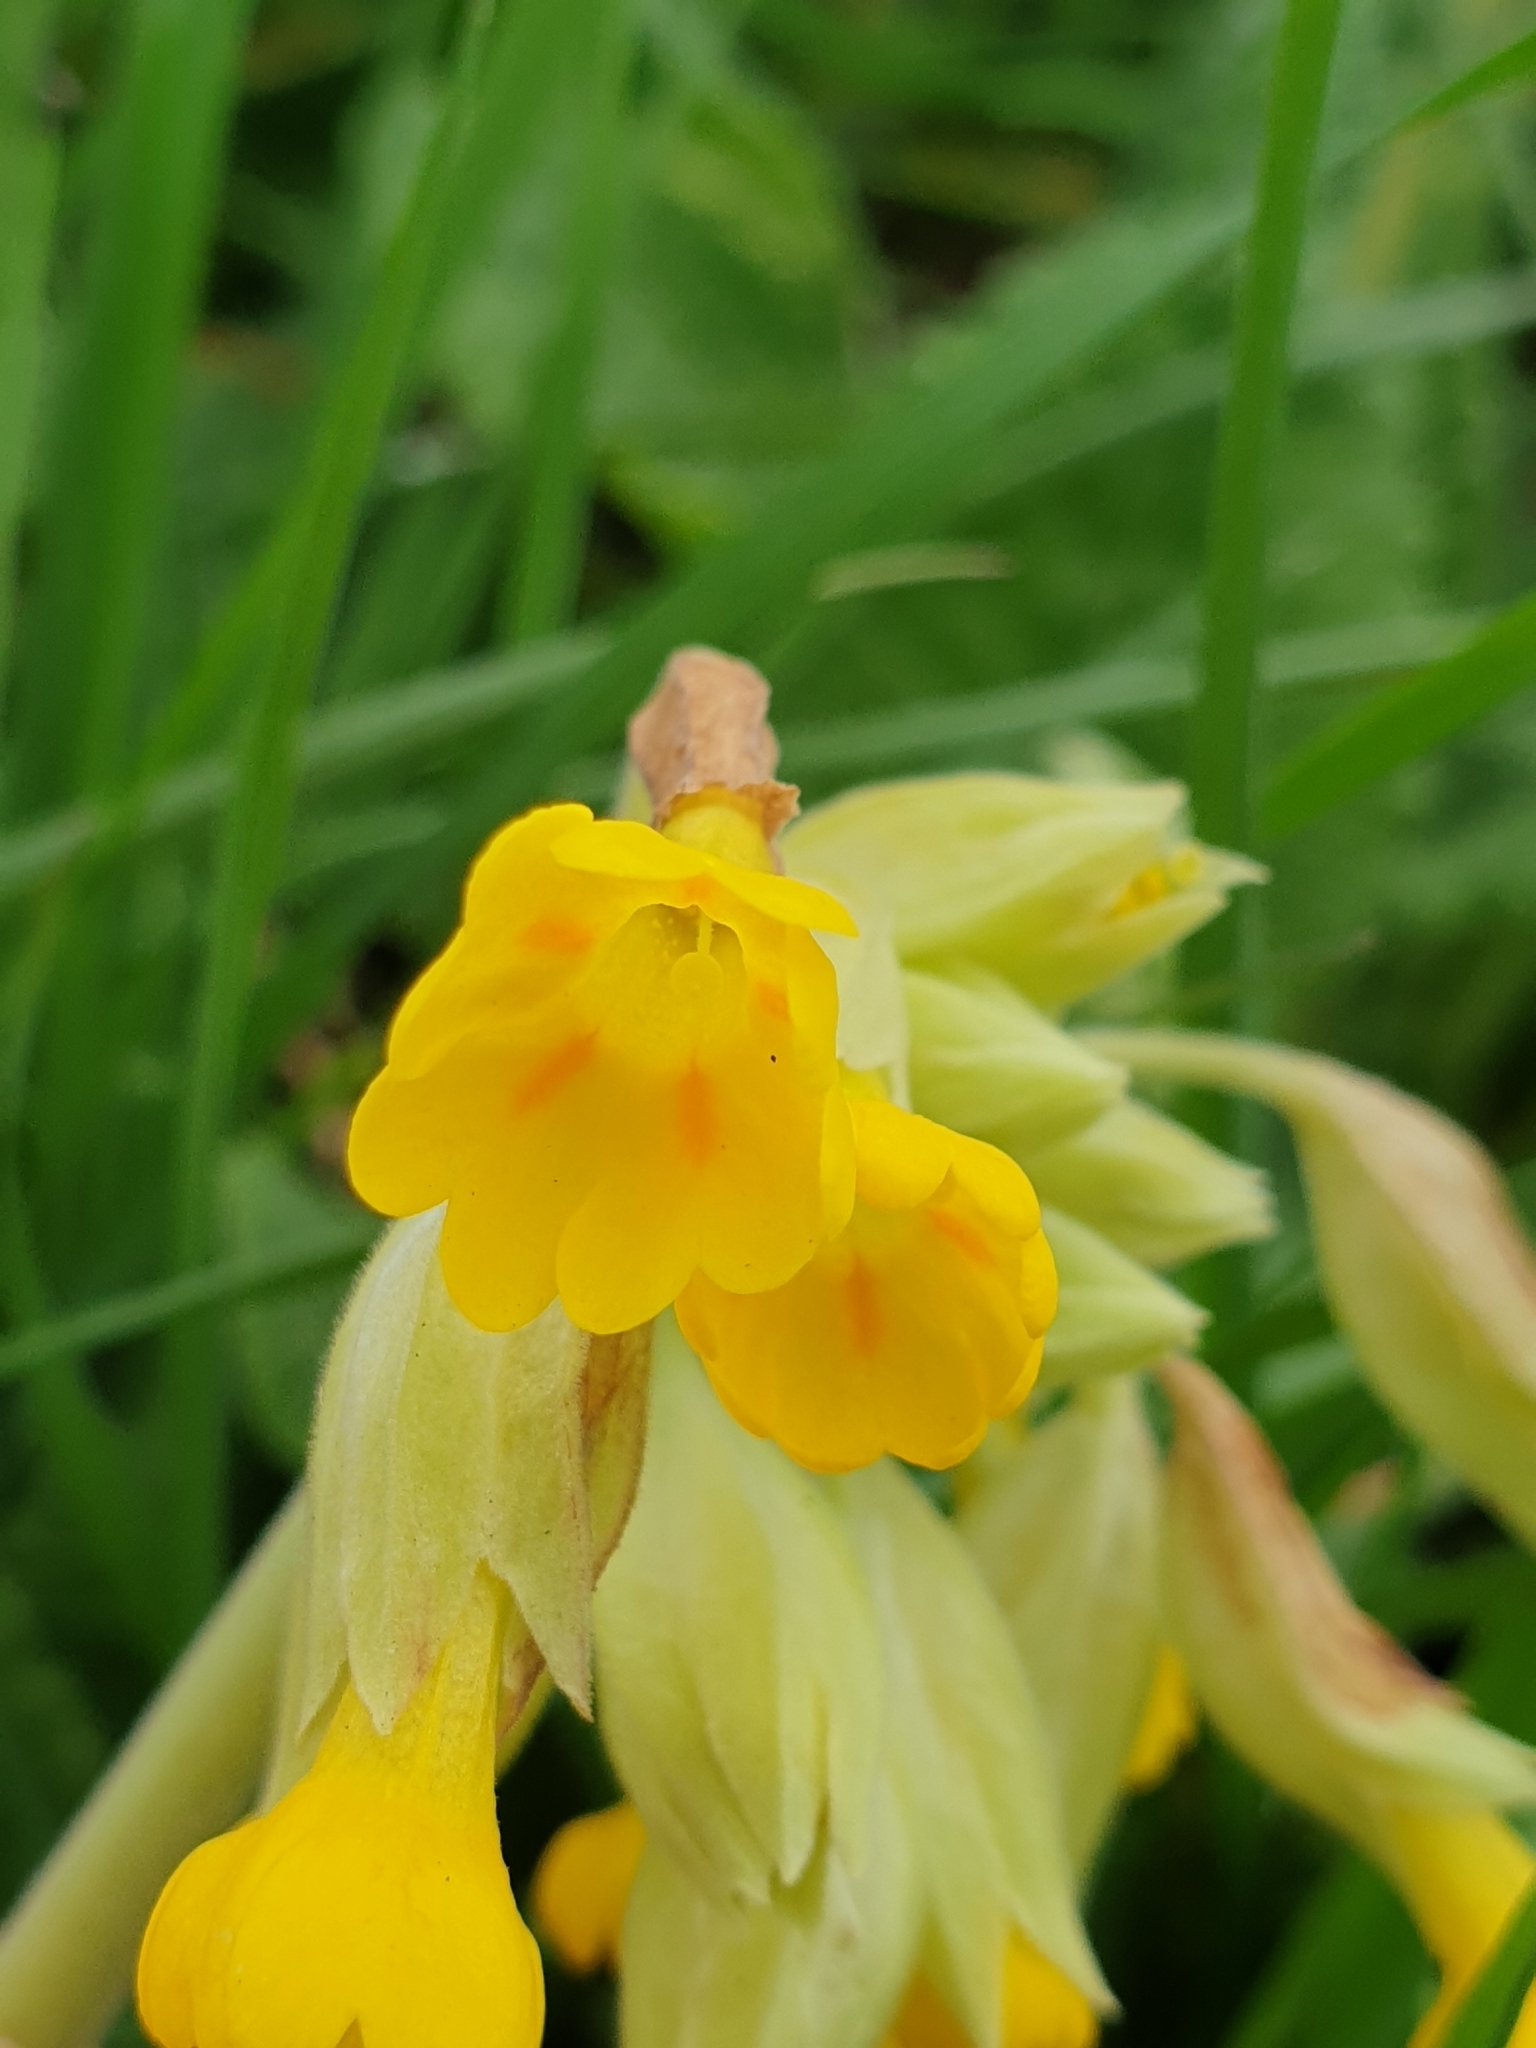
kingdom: Plantae
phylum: Tracheophyta
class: Magnoliopsida
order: Ericales
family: Primulaceae
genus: Primula
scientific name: Primula veris
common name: Cowslip
